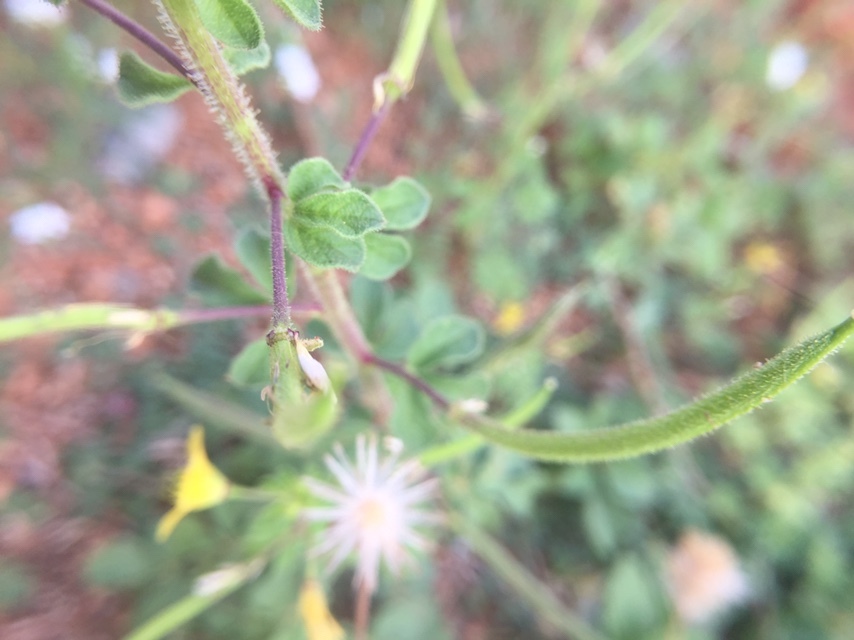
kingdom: Plantae
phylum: Tracheophyta
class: Magnoliopsida
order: Brassicales
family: Cleomaceae
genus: Arivela
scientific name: Arivela viscosa
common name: Asian spiderflower
